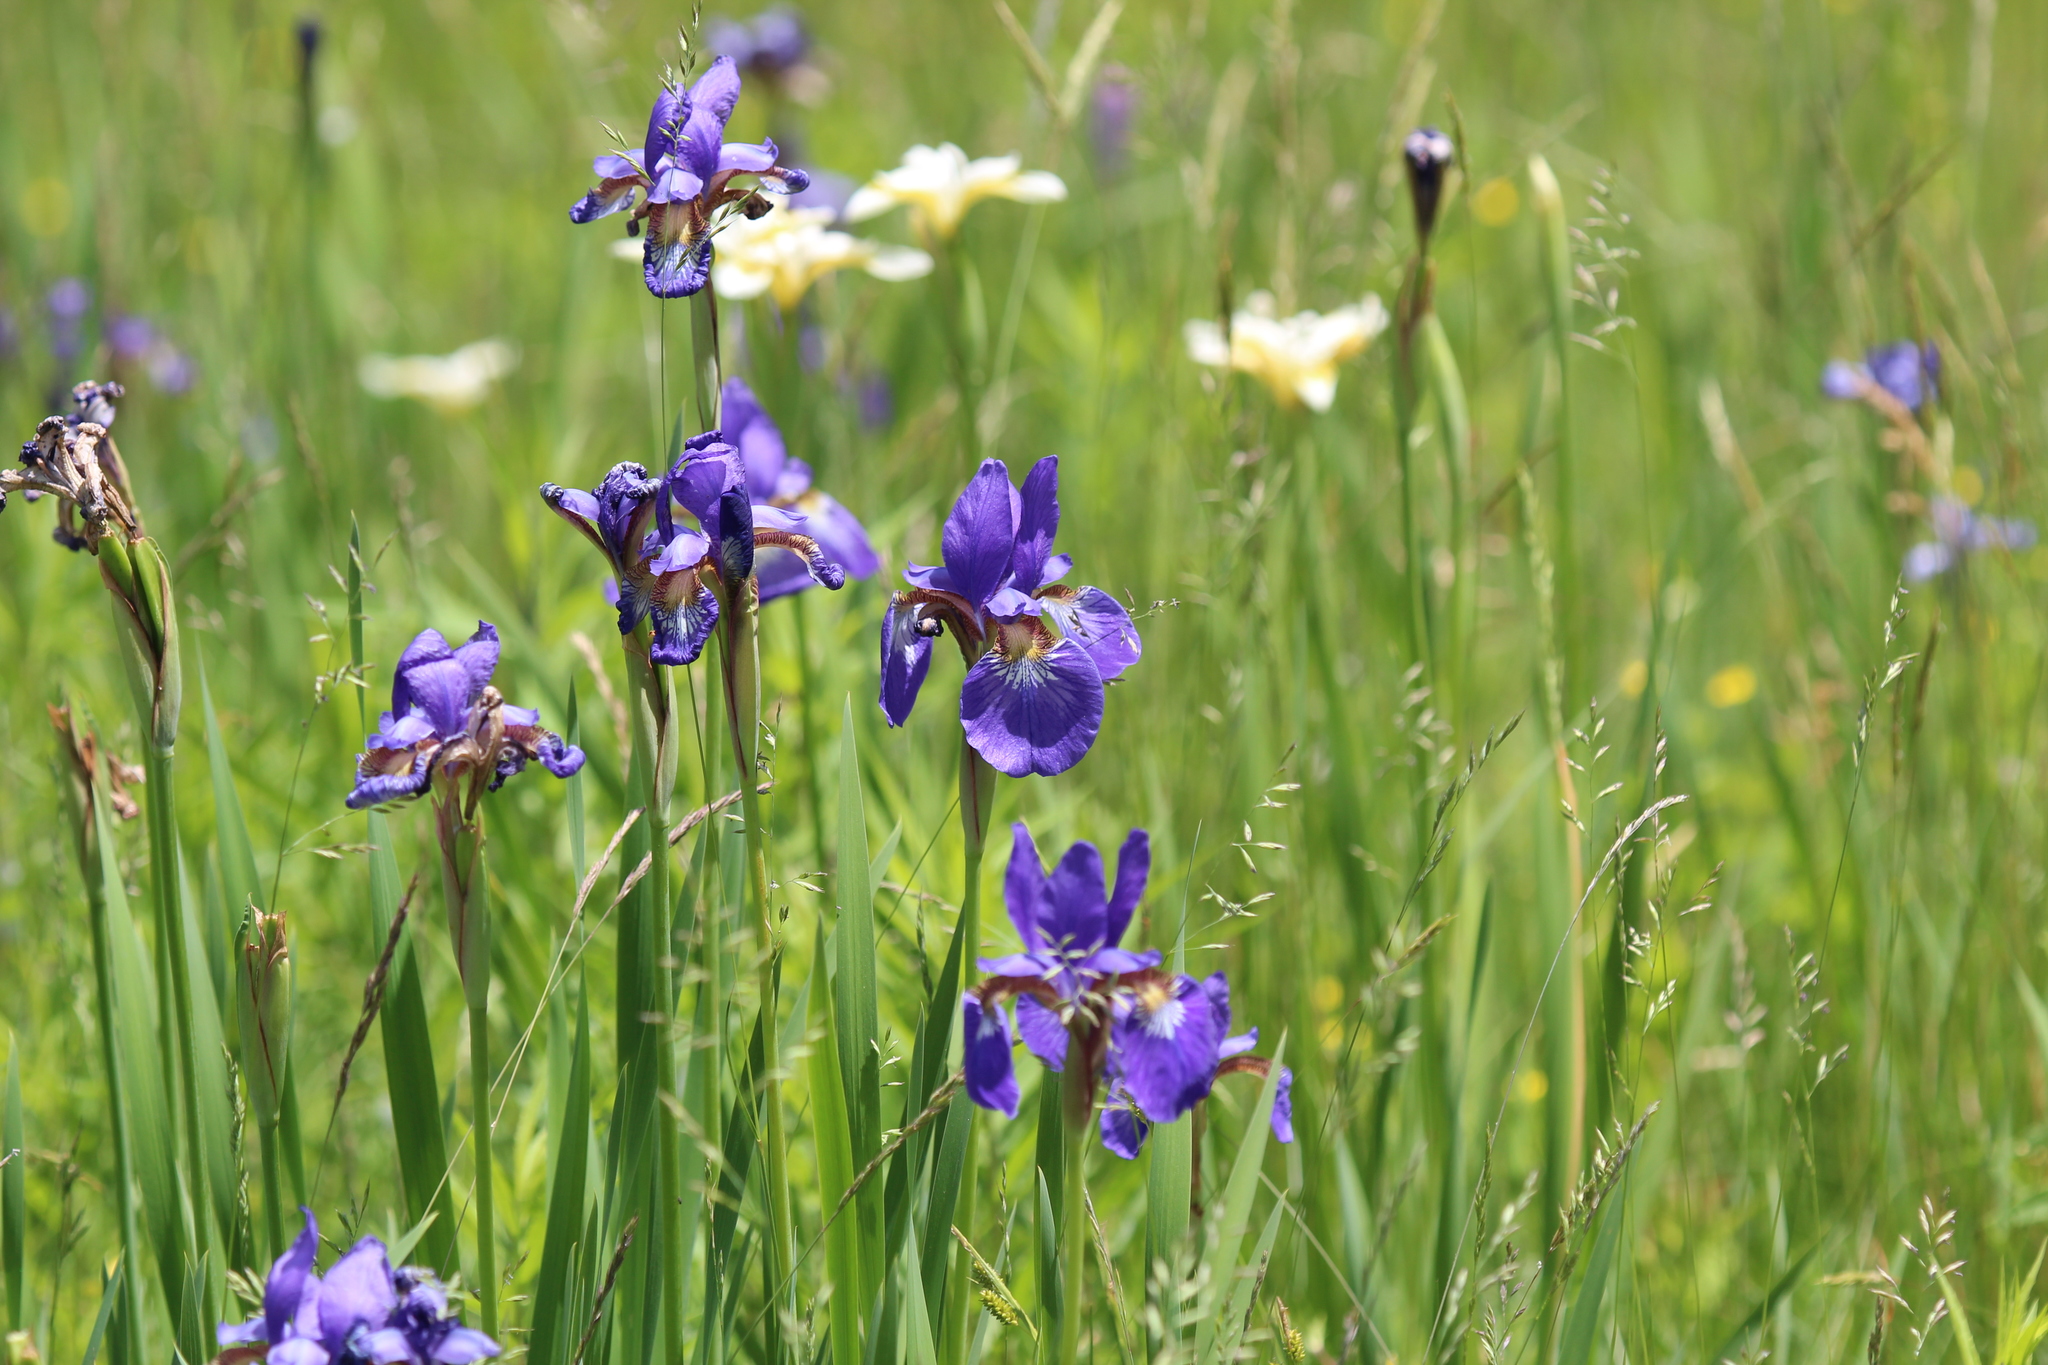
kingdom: Plantae
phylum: Tracheophyta
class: Liliopsida
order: Asparagales
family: Iridaceae
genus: Iris
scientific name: Iris sanguinea
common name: Blood iris
